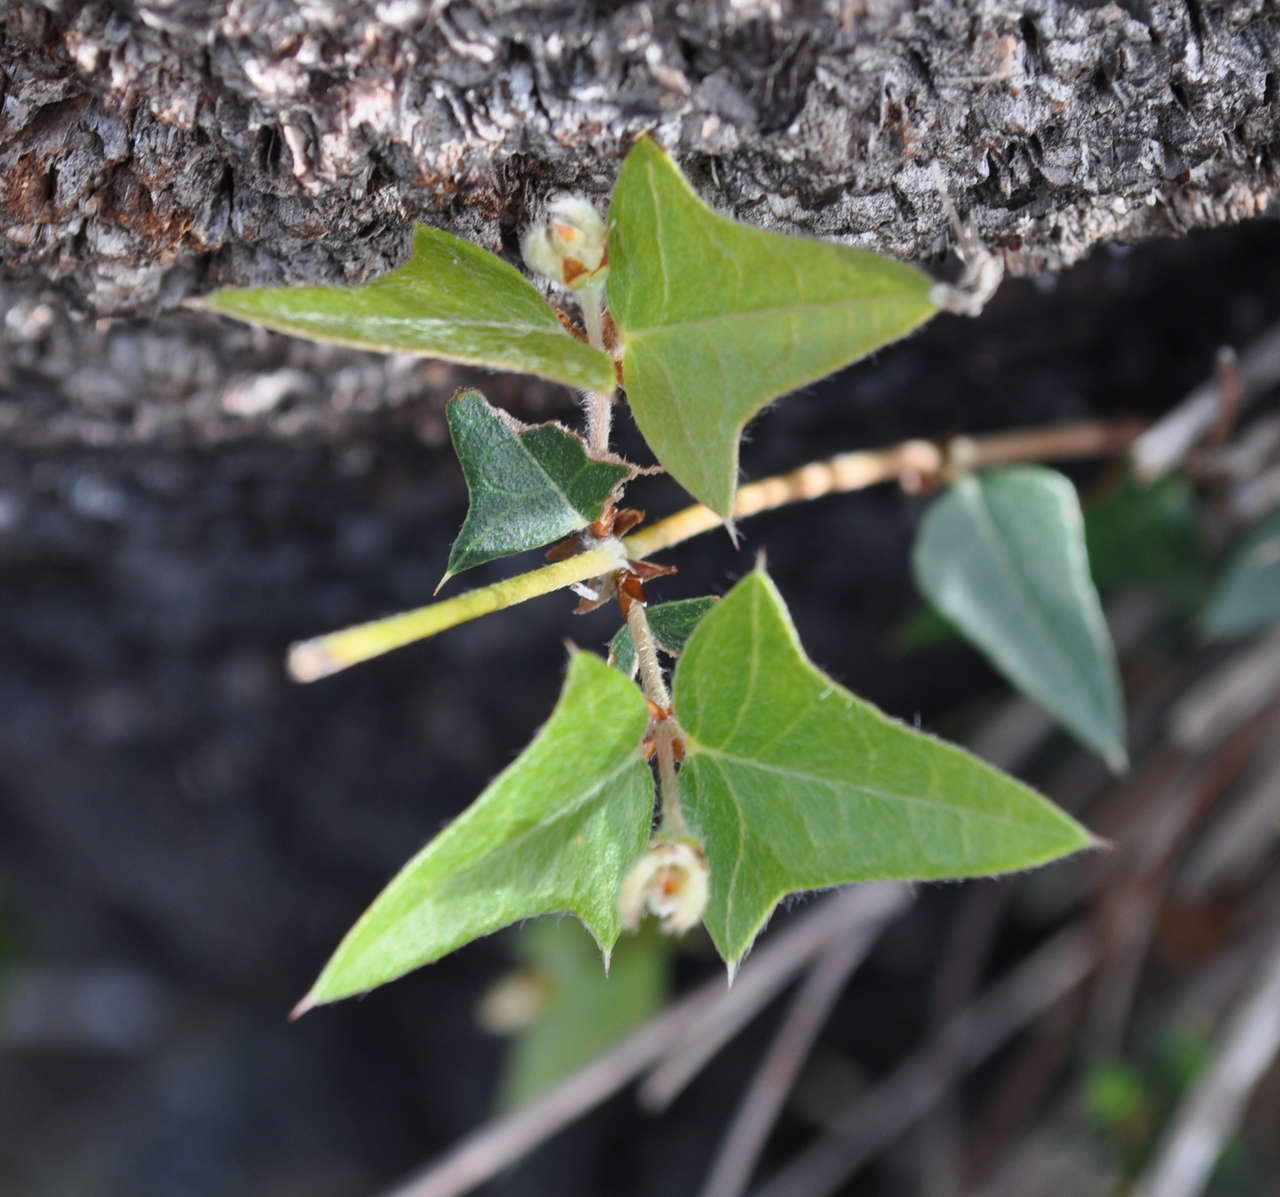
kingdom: Plantae
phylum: Tracheophyta
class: Magnoliopsida
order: Fabales
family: Fabaceae
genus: Platylobium
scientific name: Platylobium obtusangulum
